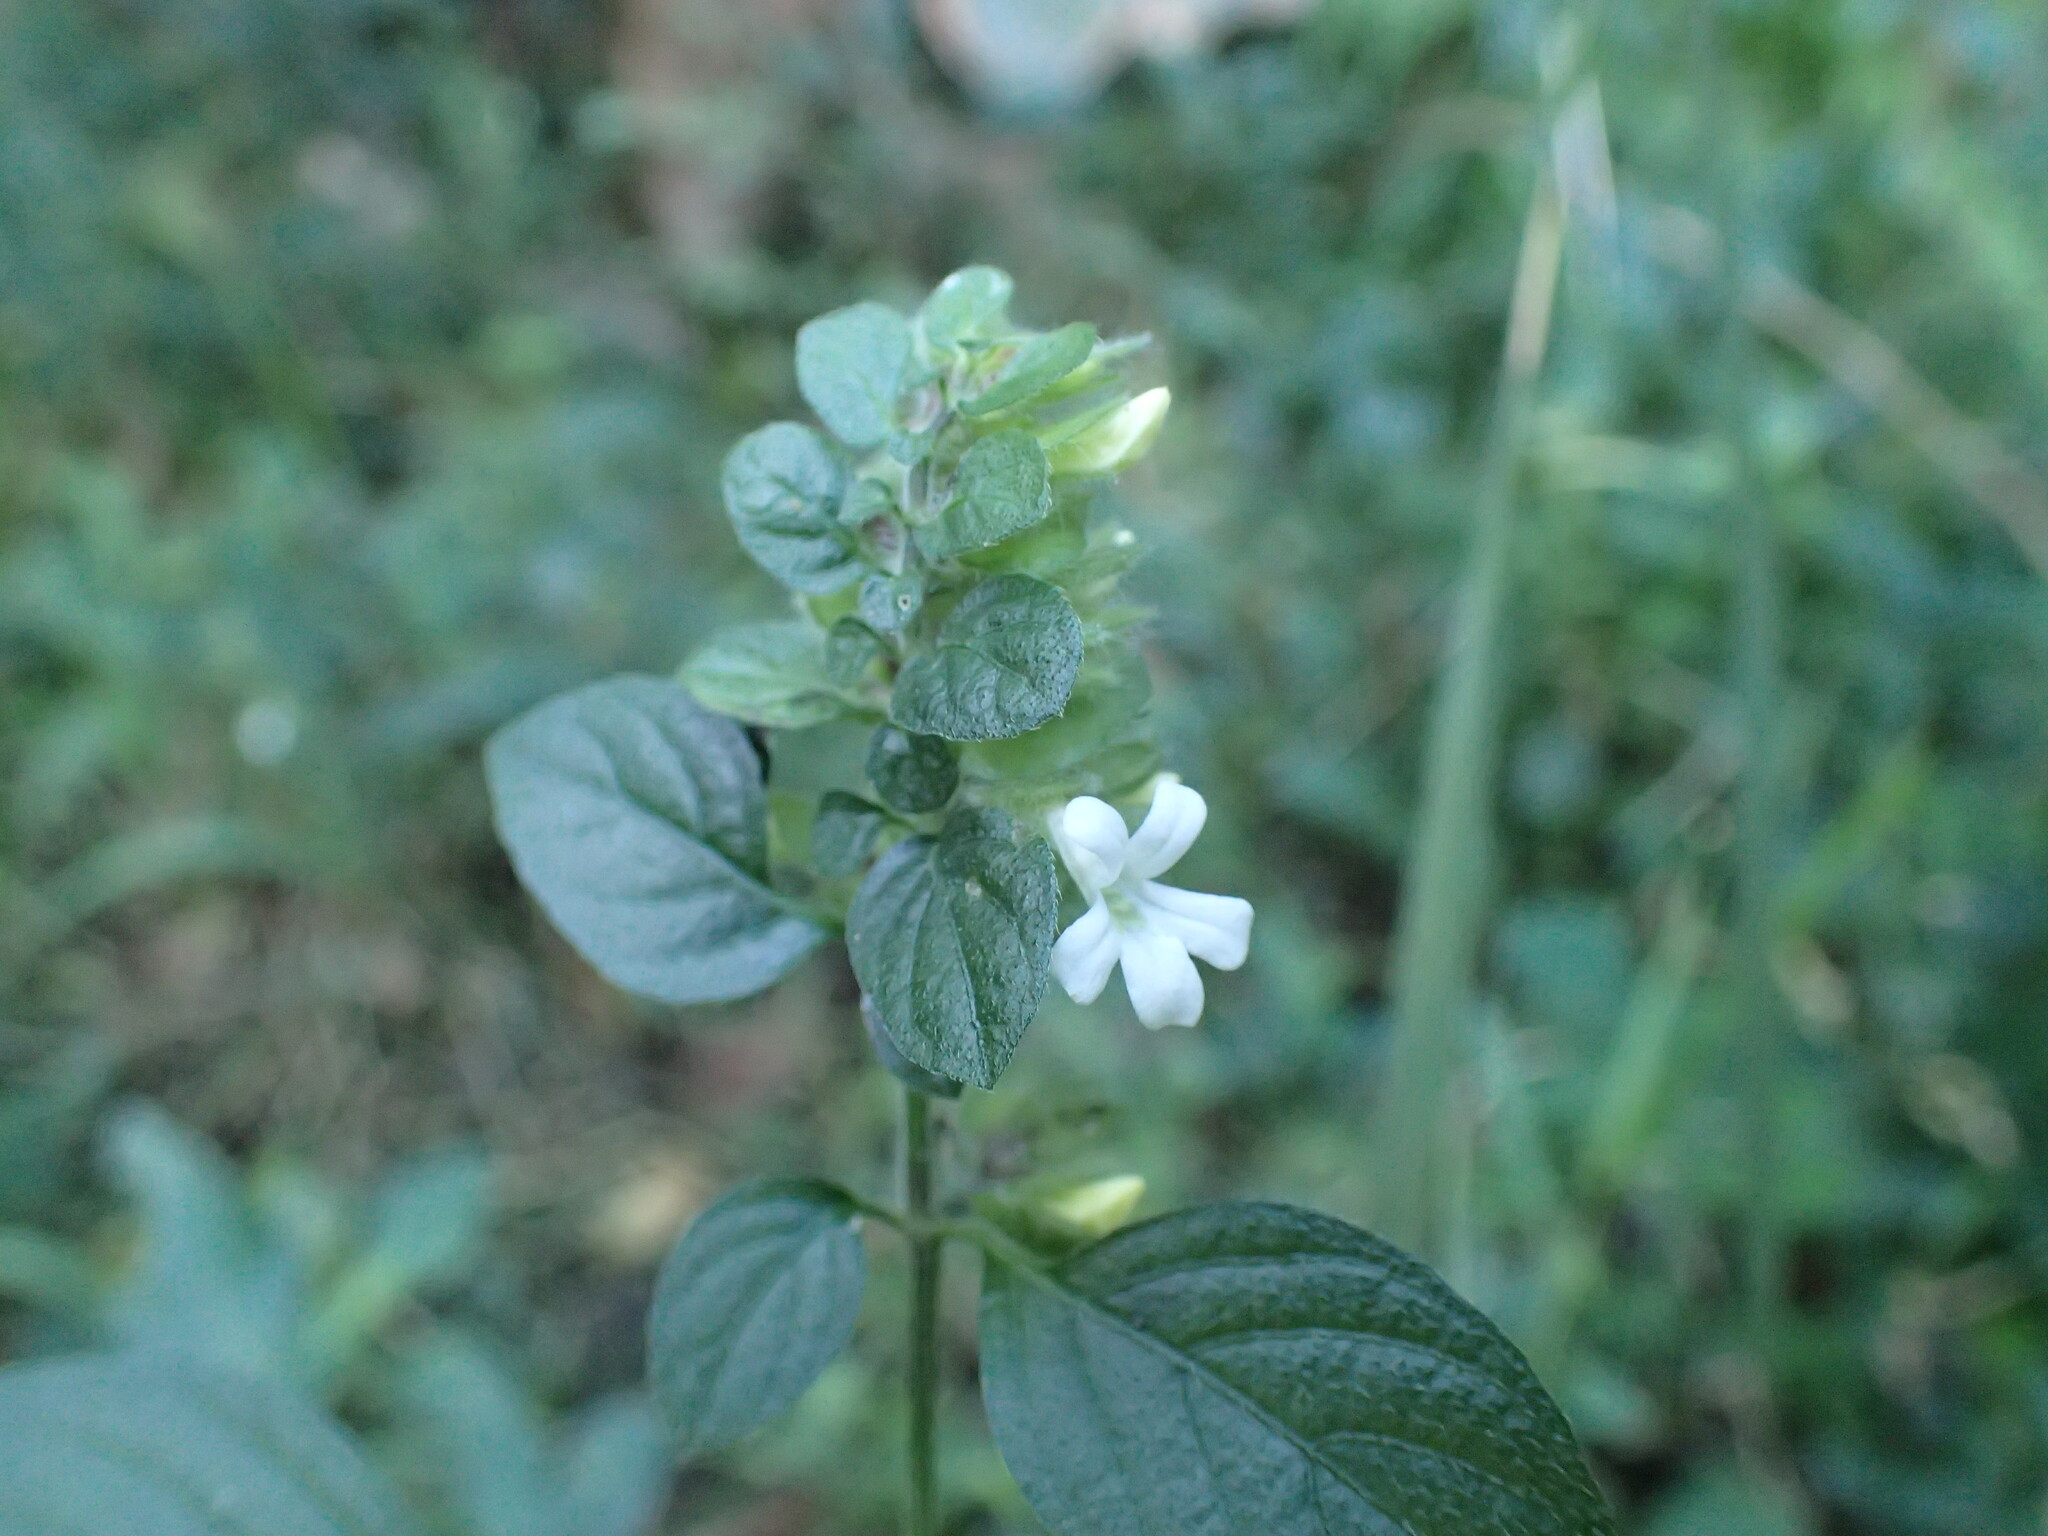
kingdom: Plantae
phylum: Tracheophyta
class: Magnoliopsida
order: Lamiales
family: Acanthaceae
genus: Phaulopsis
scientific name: Phaulopsis imbricata
